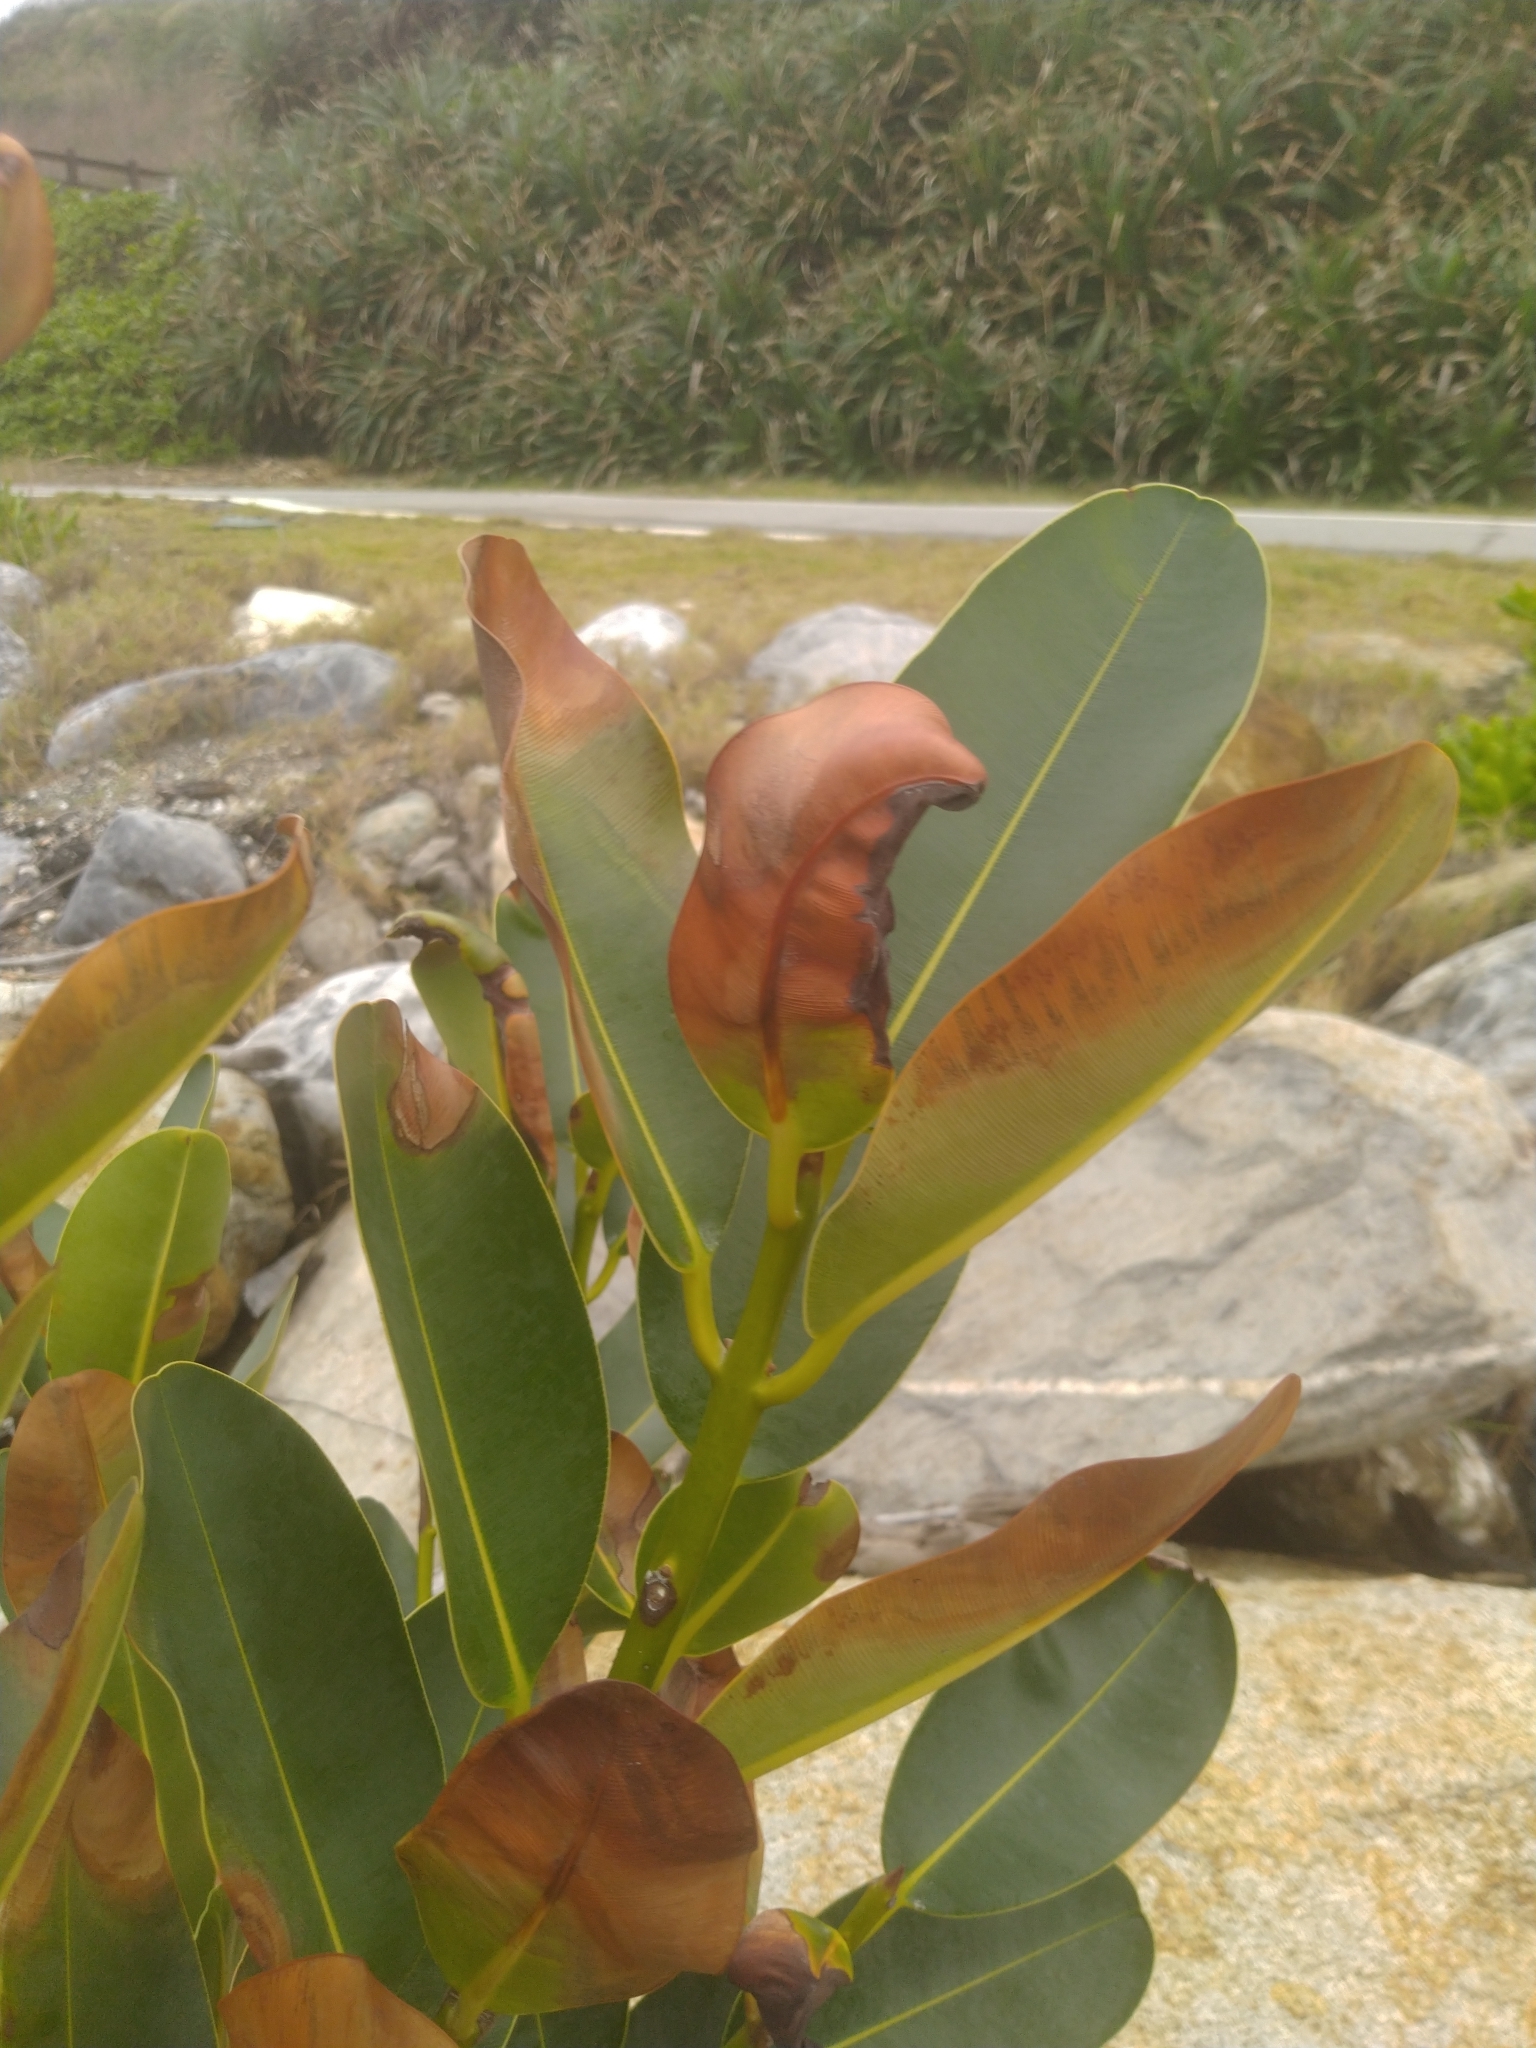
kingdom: Plantae
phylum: Tracheophyta
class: Magnoliopsida
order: Malpighiales
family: Calophyllaceae
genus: Calophyllum
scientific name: Calophyllum inophyllum
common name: Alexandrian laurel
